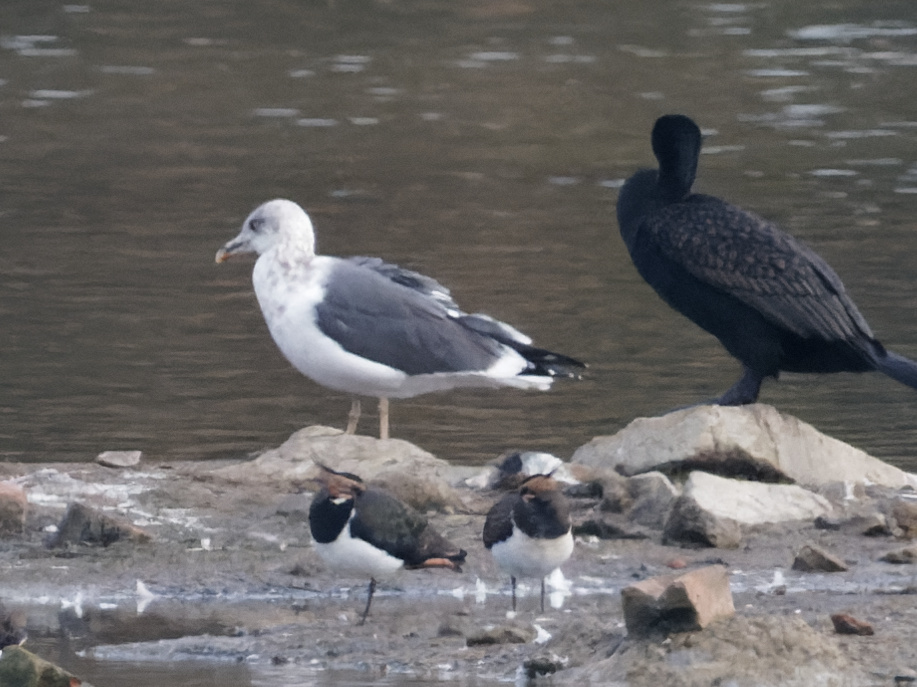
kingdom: Animalia
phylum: Chordata
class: Aves
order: Charadriiformes
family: Laridae
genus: Larus
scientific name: Larus fuscus
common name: Lesser black-backed gull
